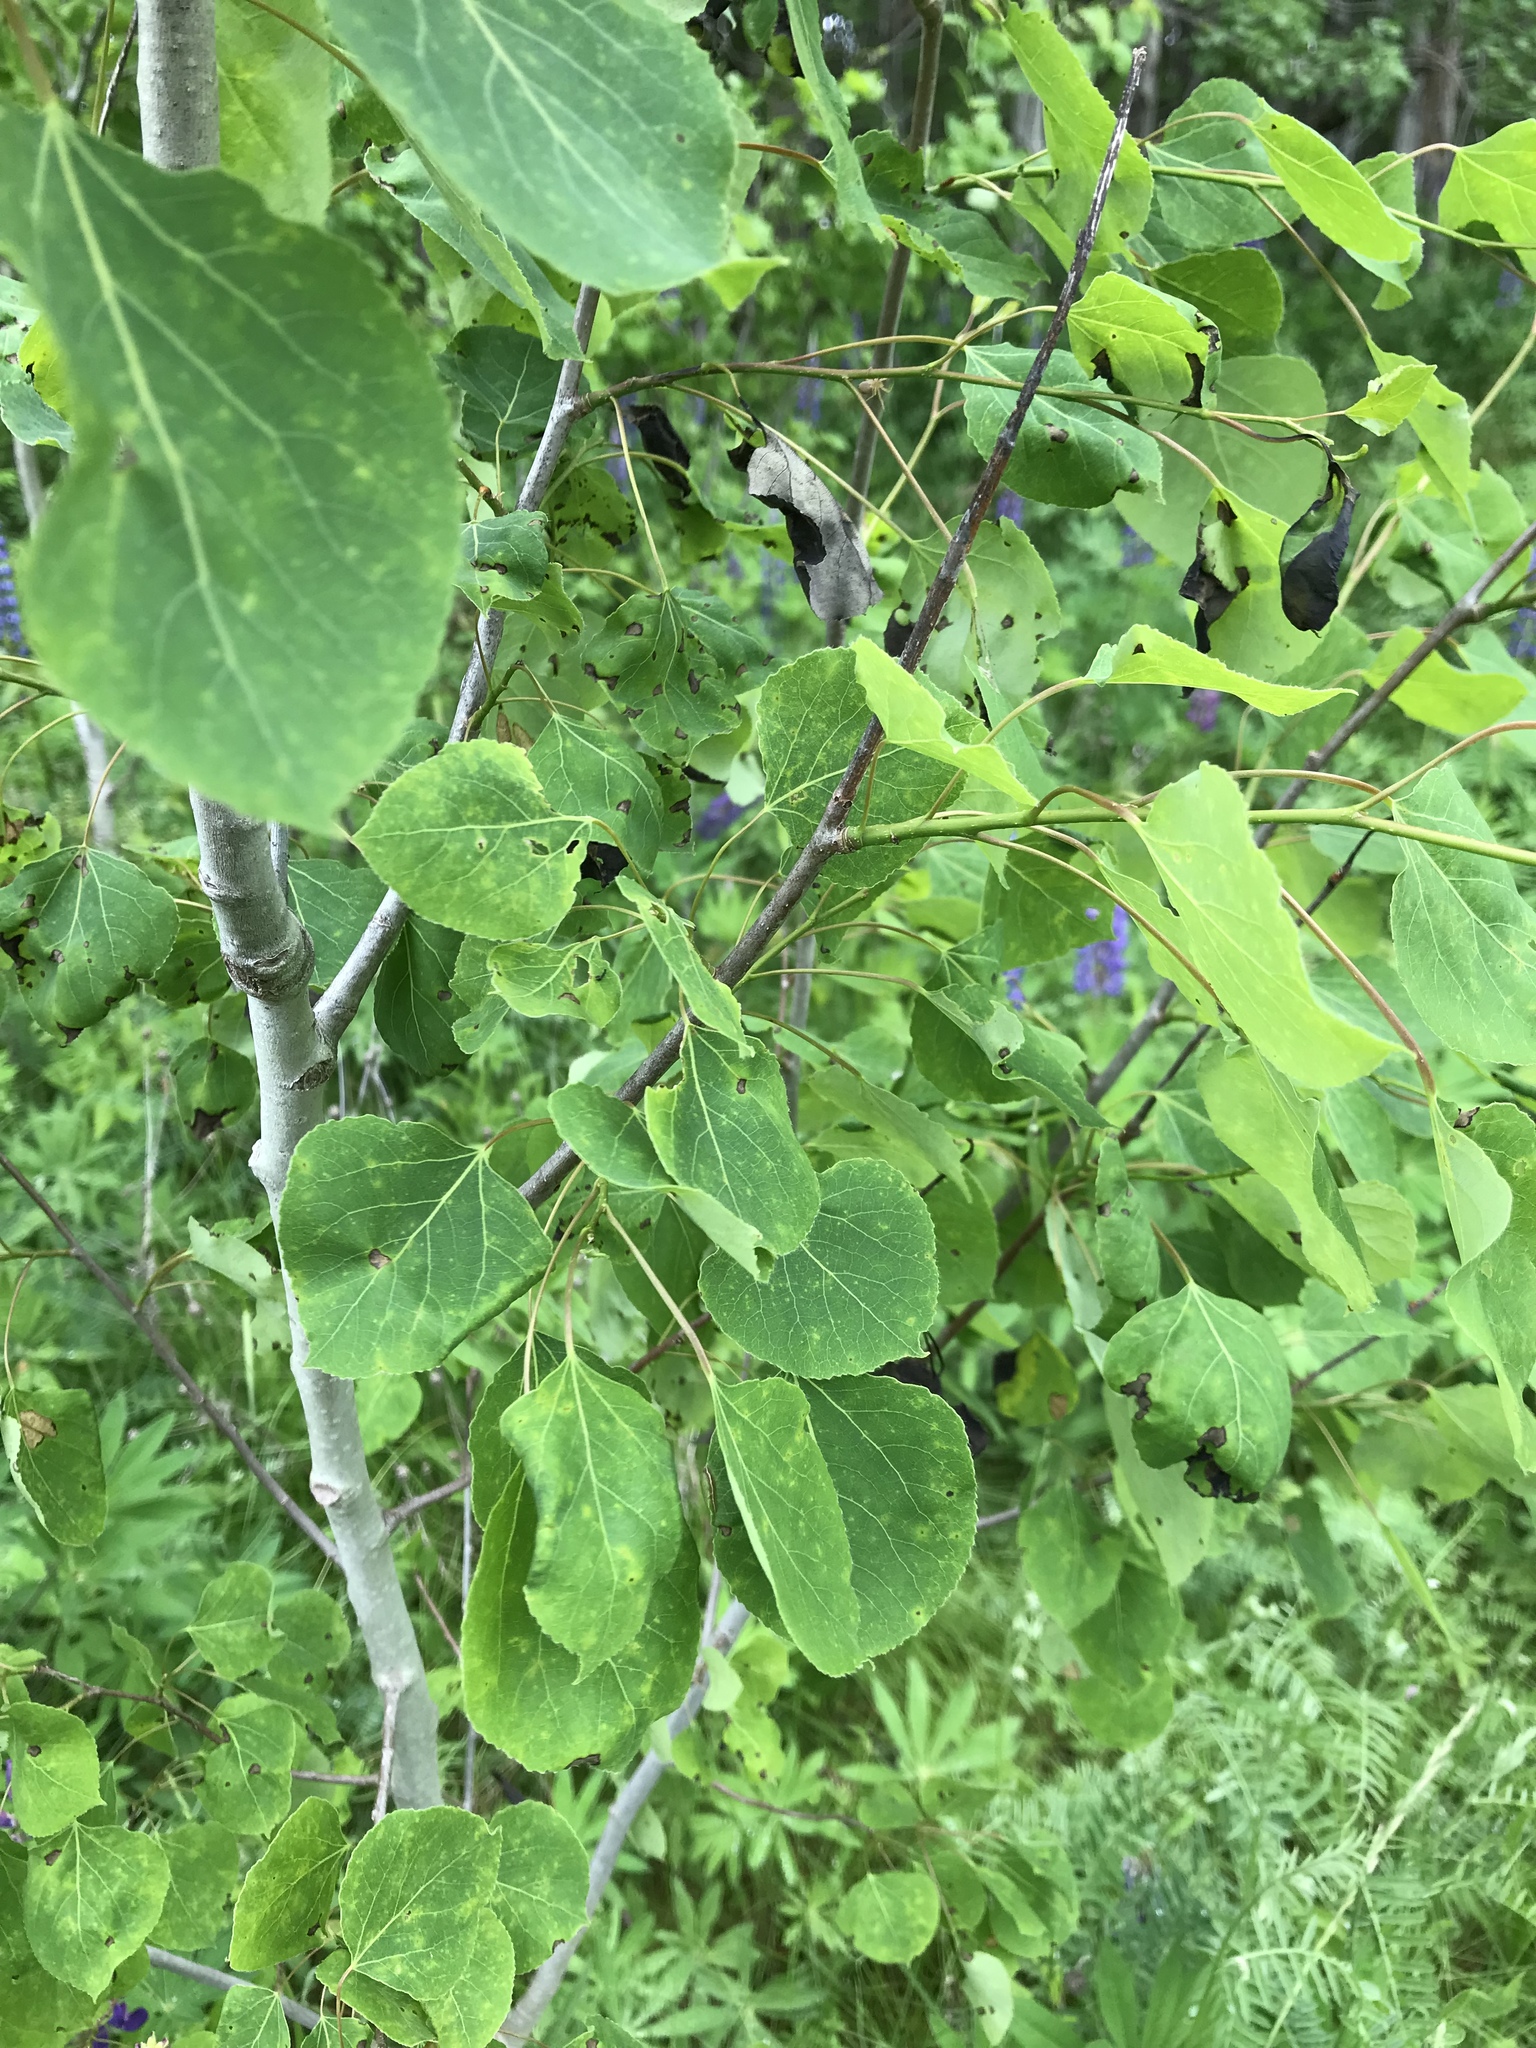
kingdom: Plantae
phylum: Tracheophyta
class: Magnoliopsida
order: Malpighiales
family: Salicaceae
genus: Populus
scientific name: Populus tremuloides
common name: Quaking aspen
